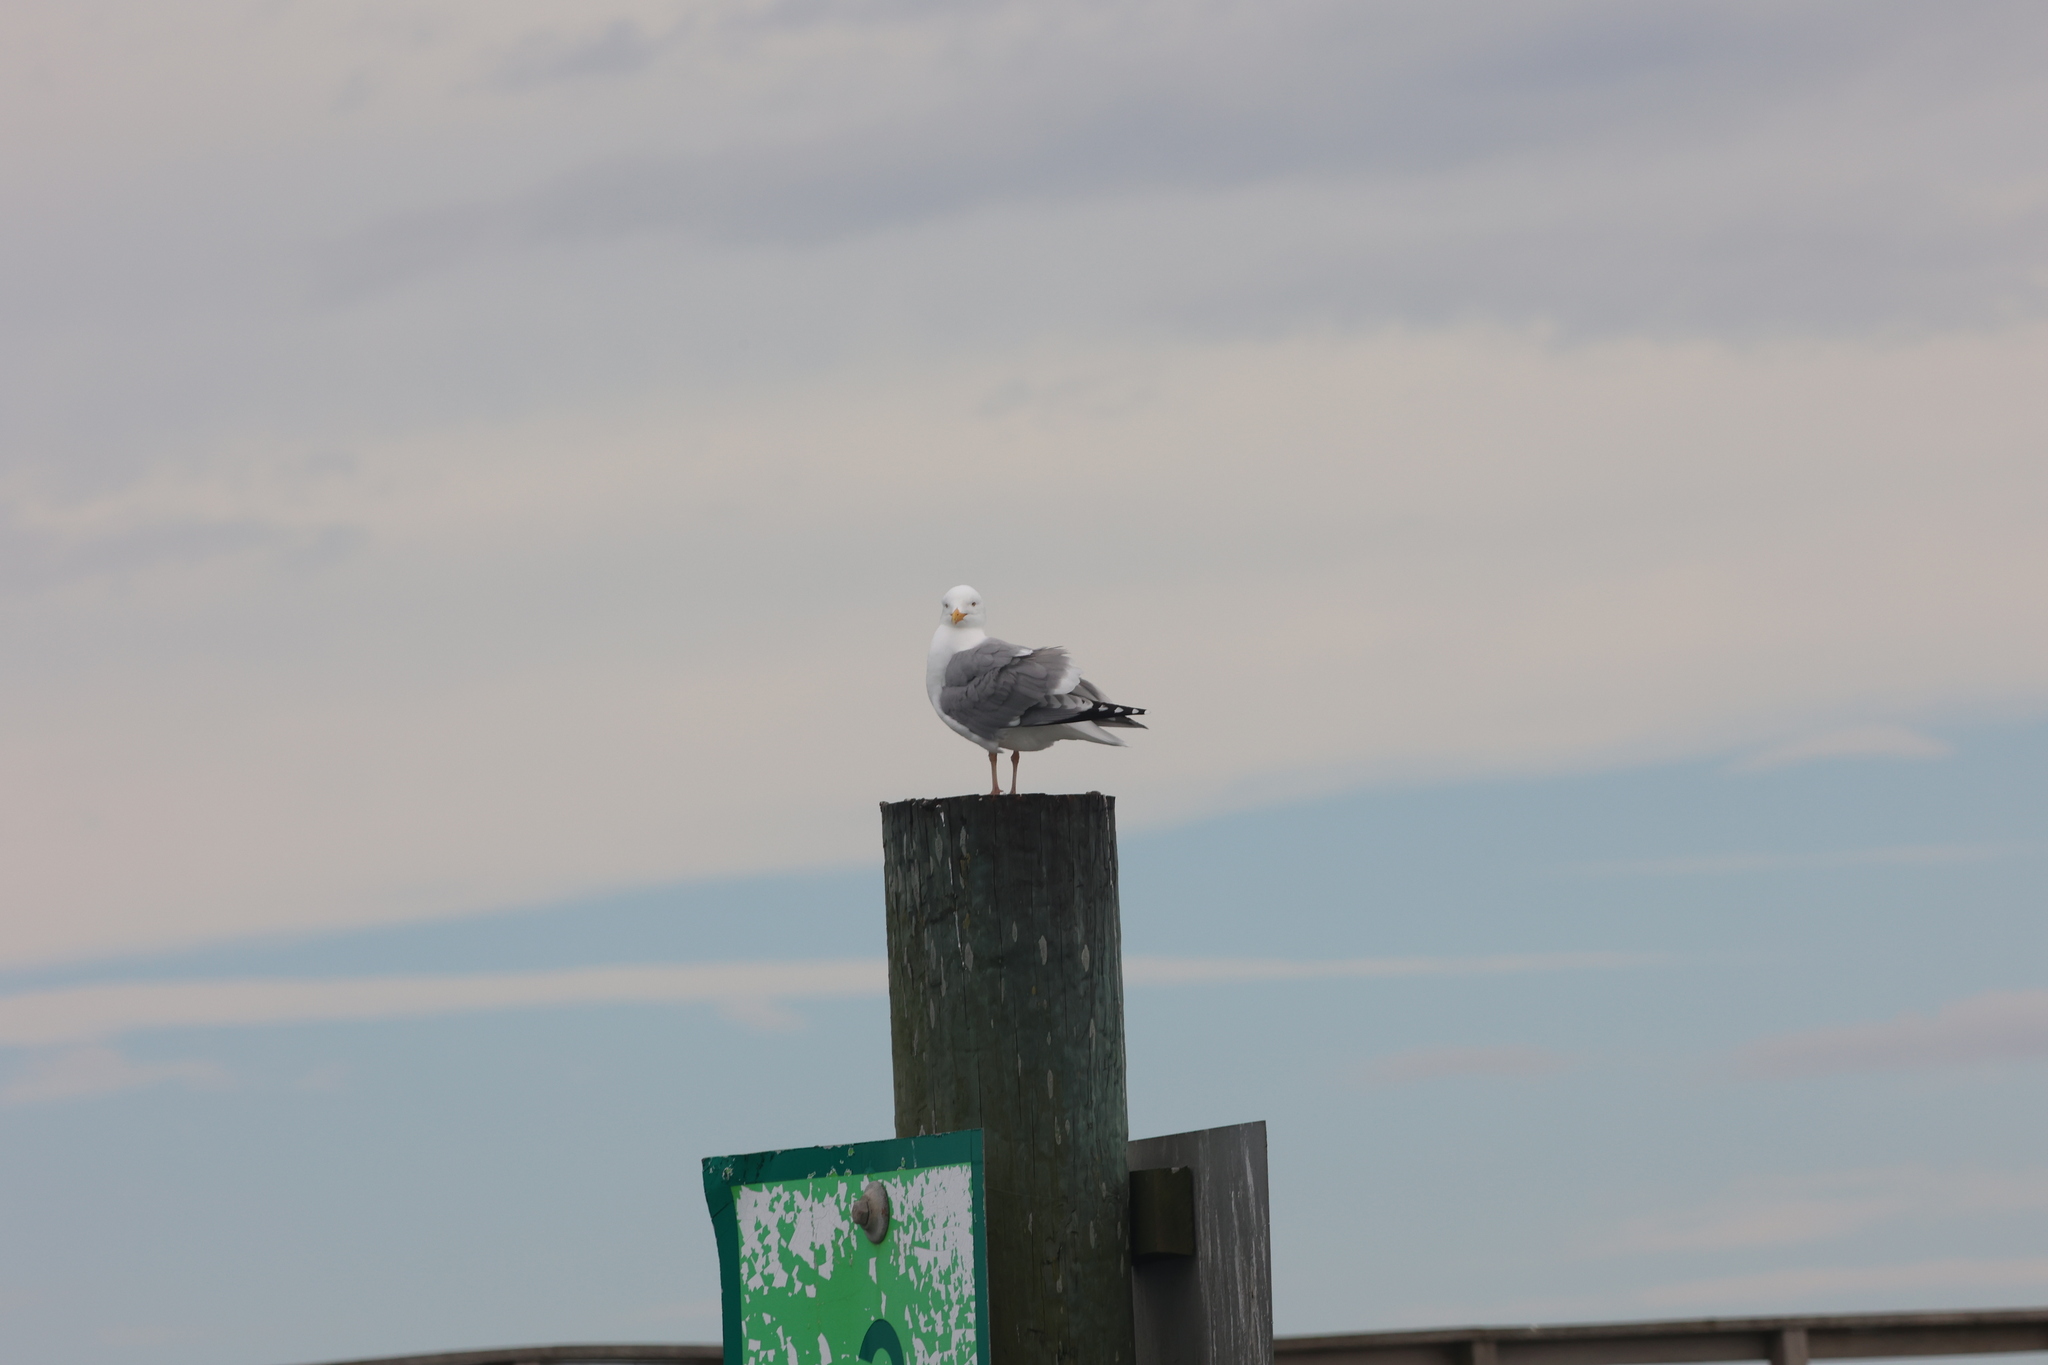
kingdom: Animalia
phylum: Chordata
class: Aves
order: Charadriiformes
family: Laridae
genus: Larus
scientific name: Larus argentatus
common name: Herring gull
